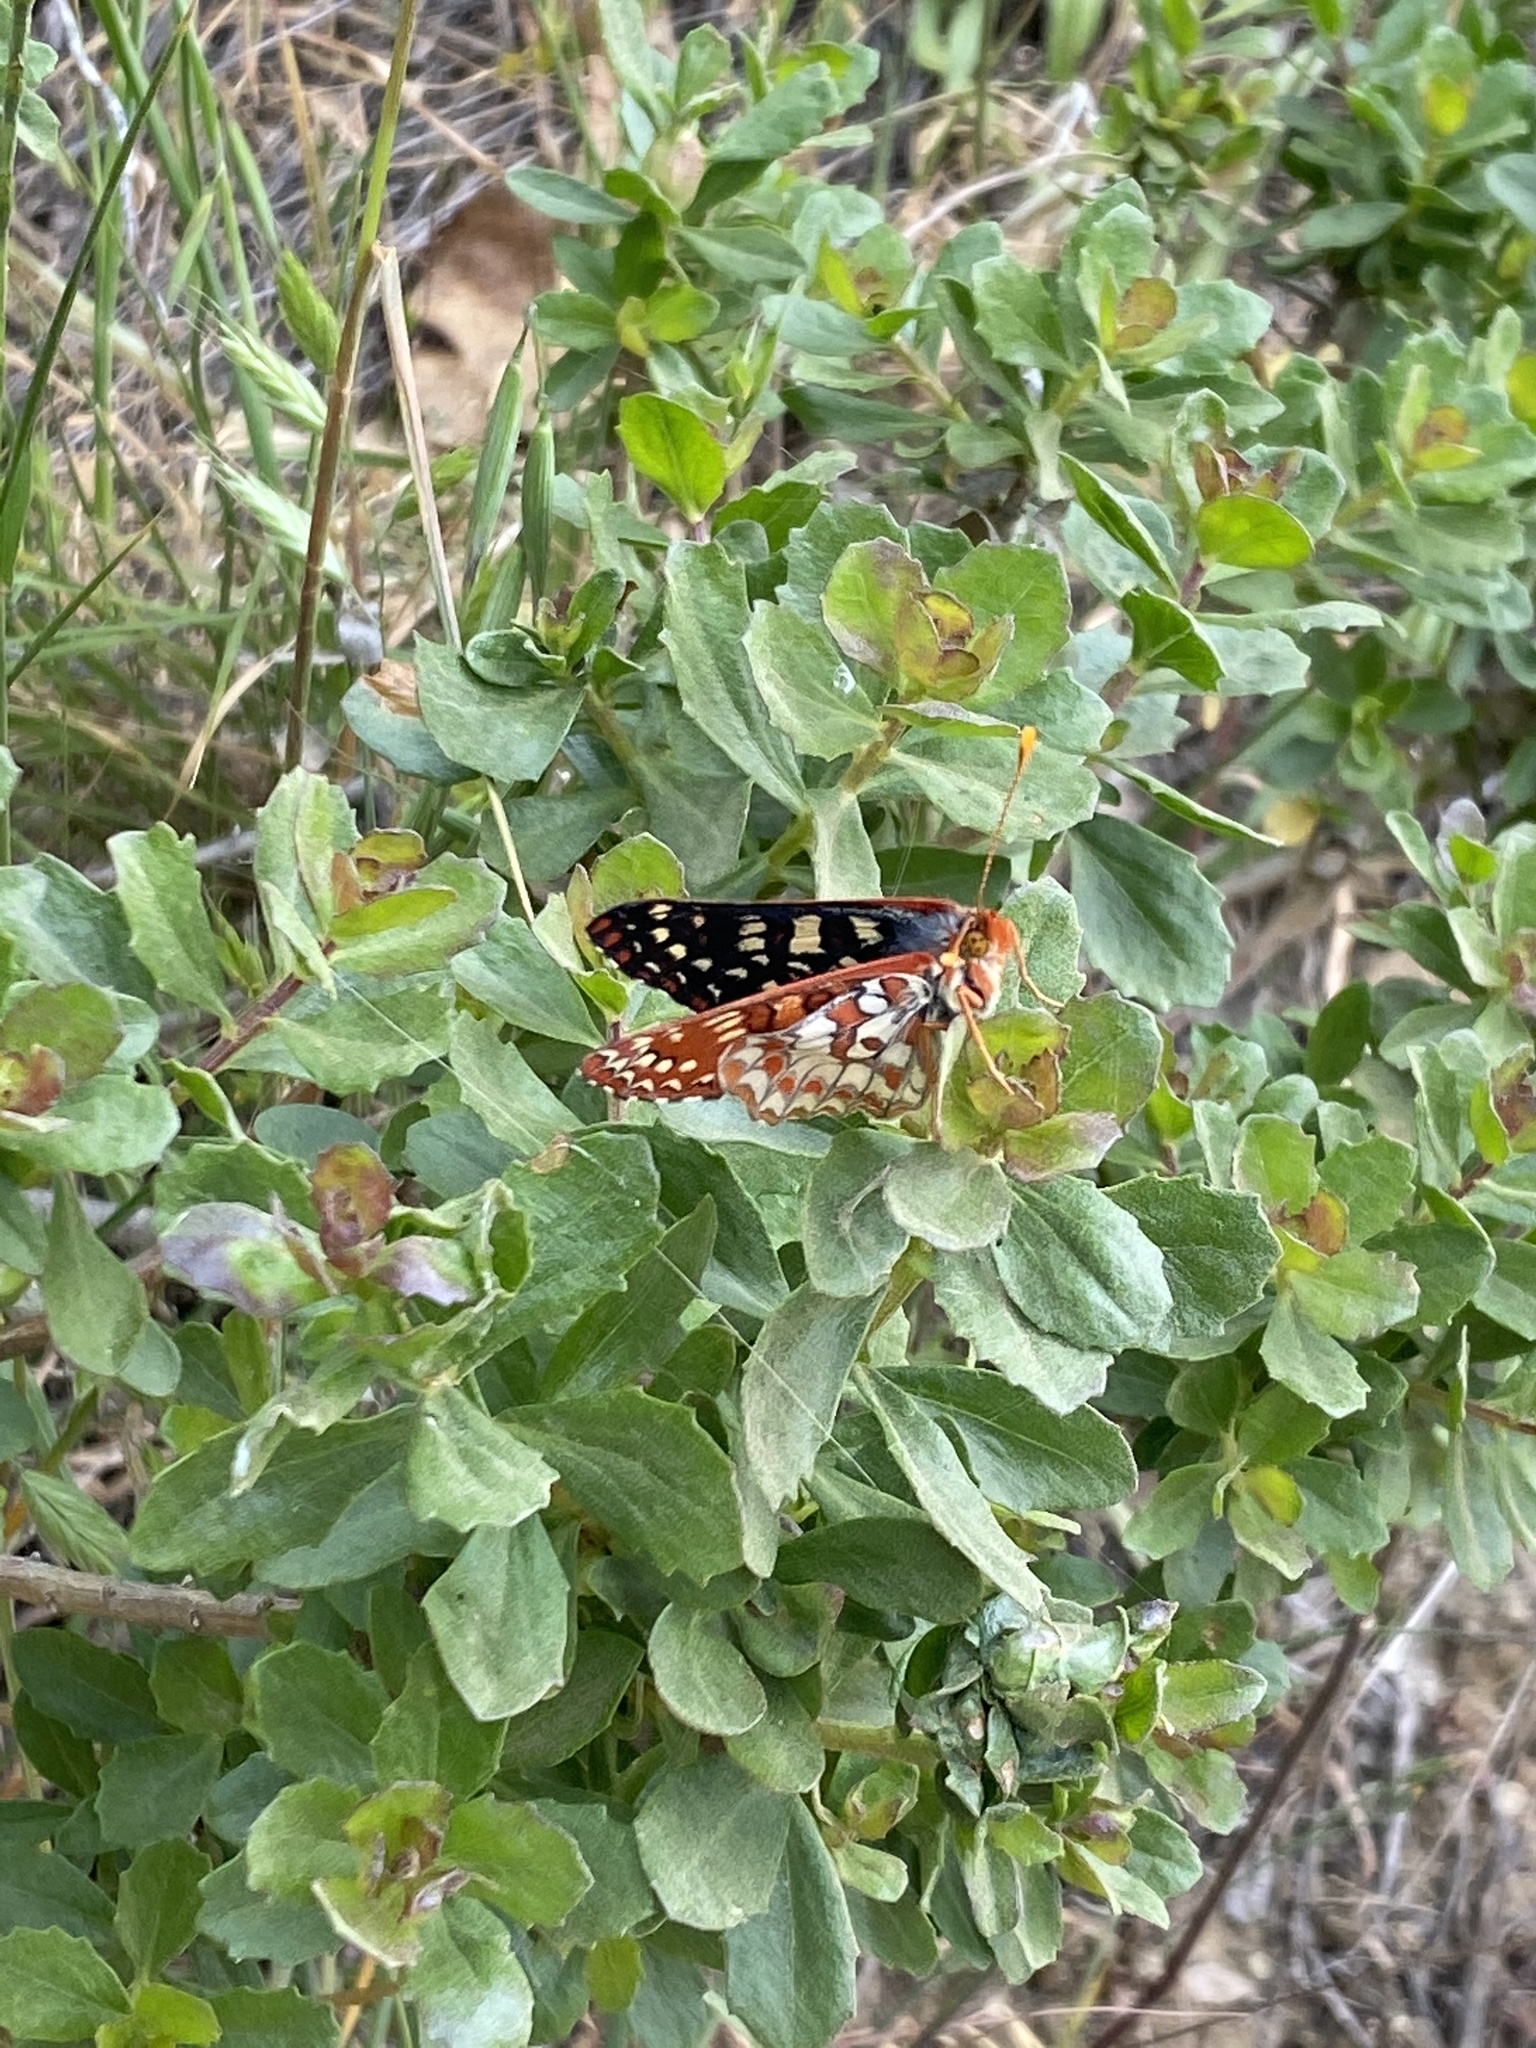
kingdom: Animalia
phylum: Arthropoda
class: Insecta
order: Lepidoptera
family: Nymphalidae
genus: Occidryas
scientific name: Occidryas chalcedona
